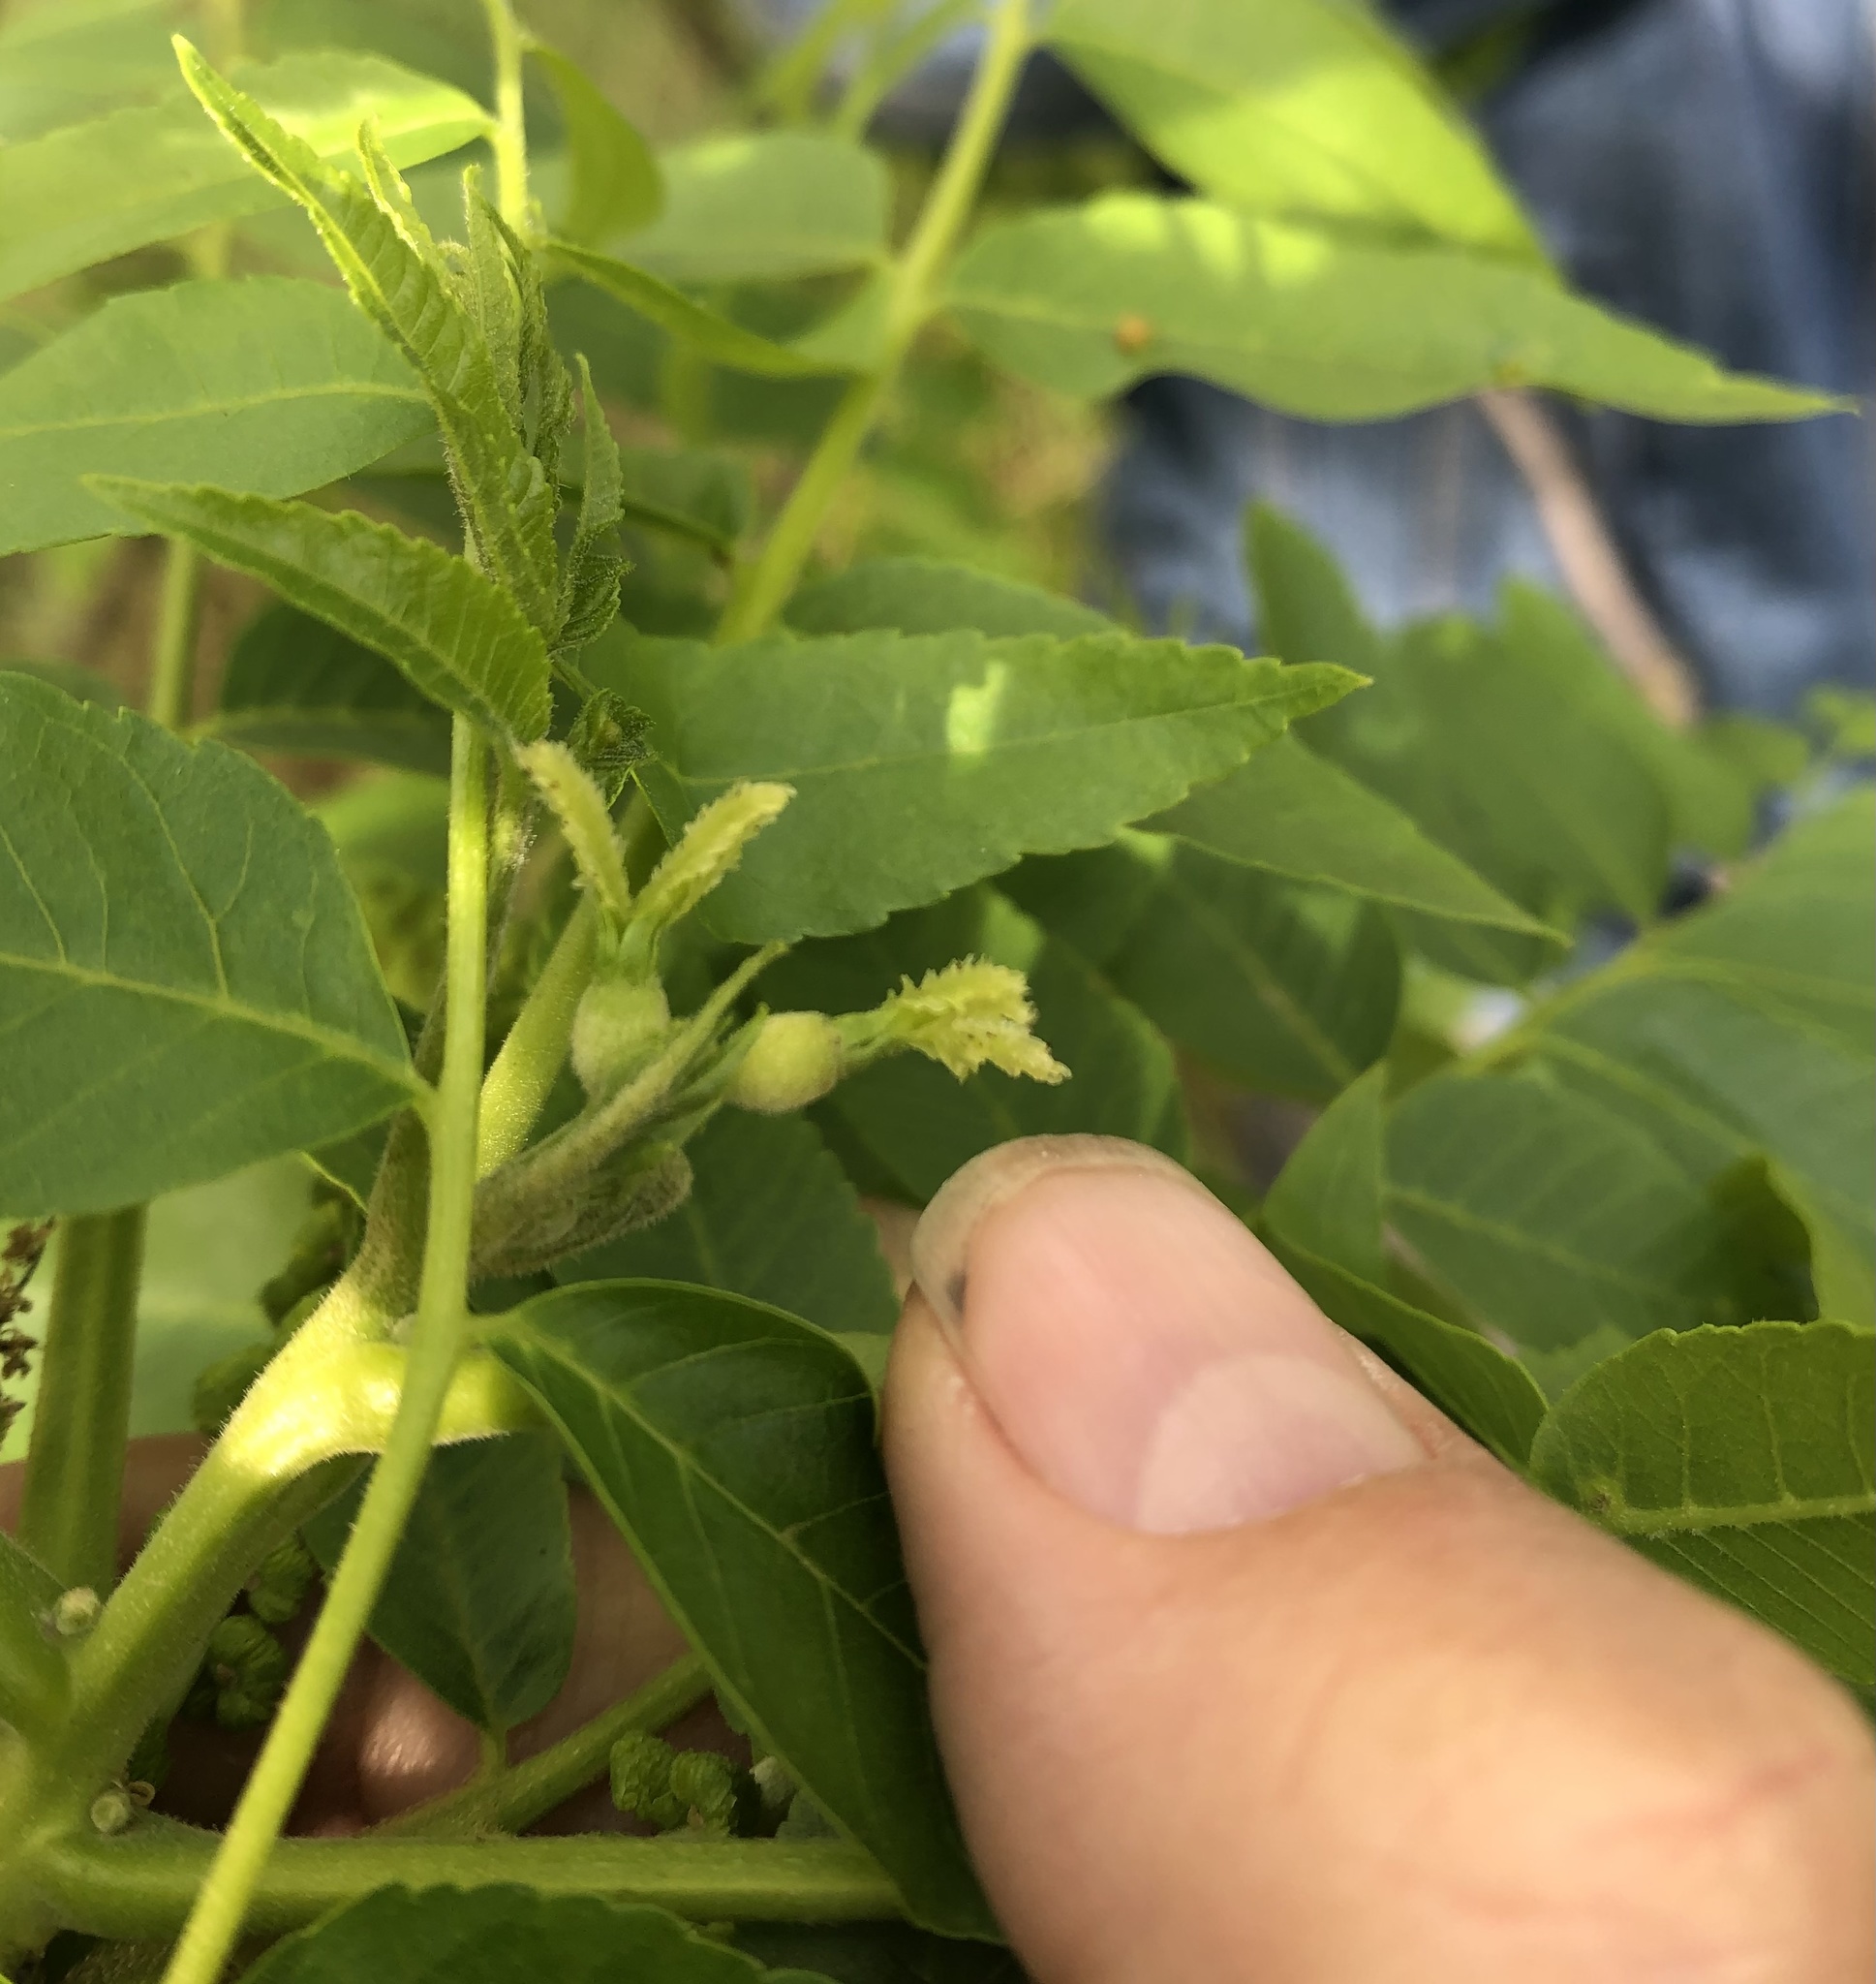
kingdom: Plantae
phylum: Tracheophyta
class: Magnoliopsida
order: Fagales
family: Juglandaceae
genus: Juglans
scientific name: Juglans hindsii
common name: Northern california black walnut
